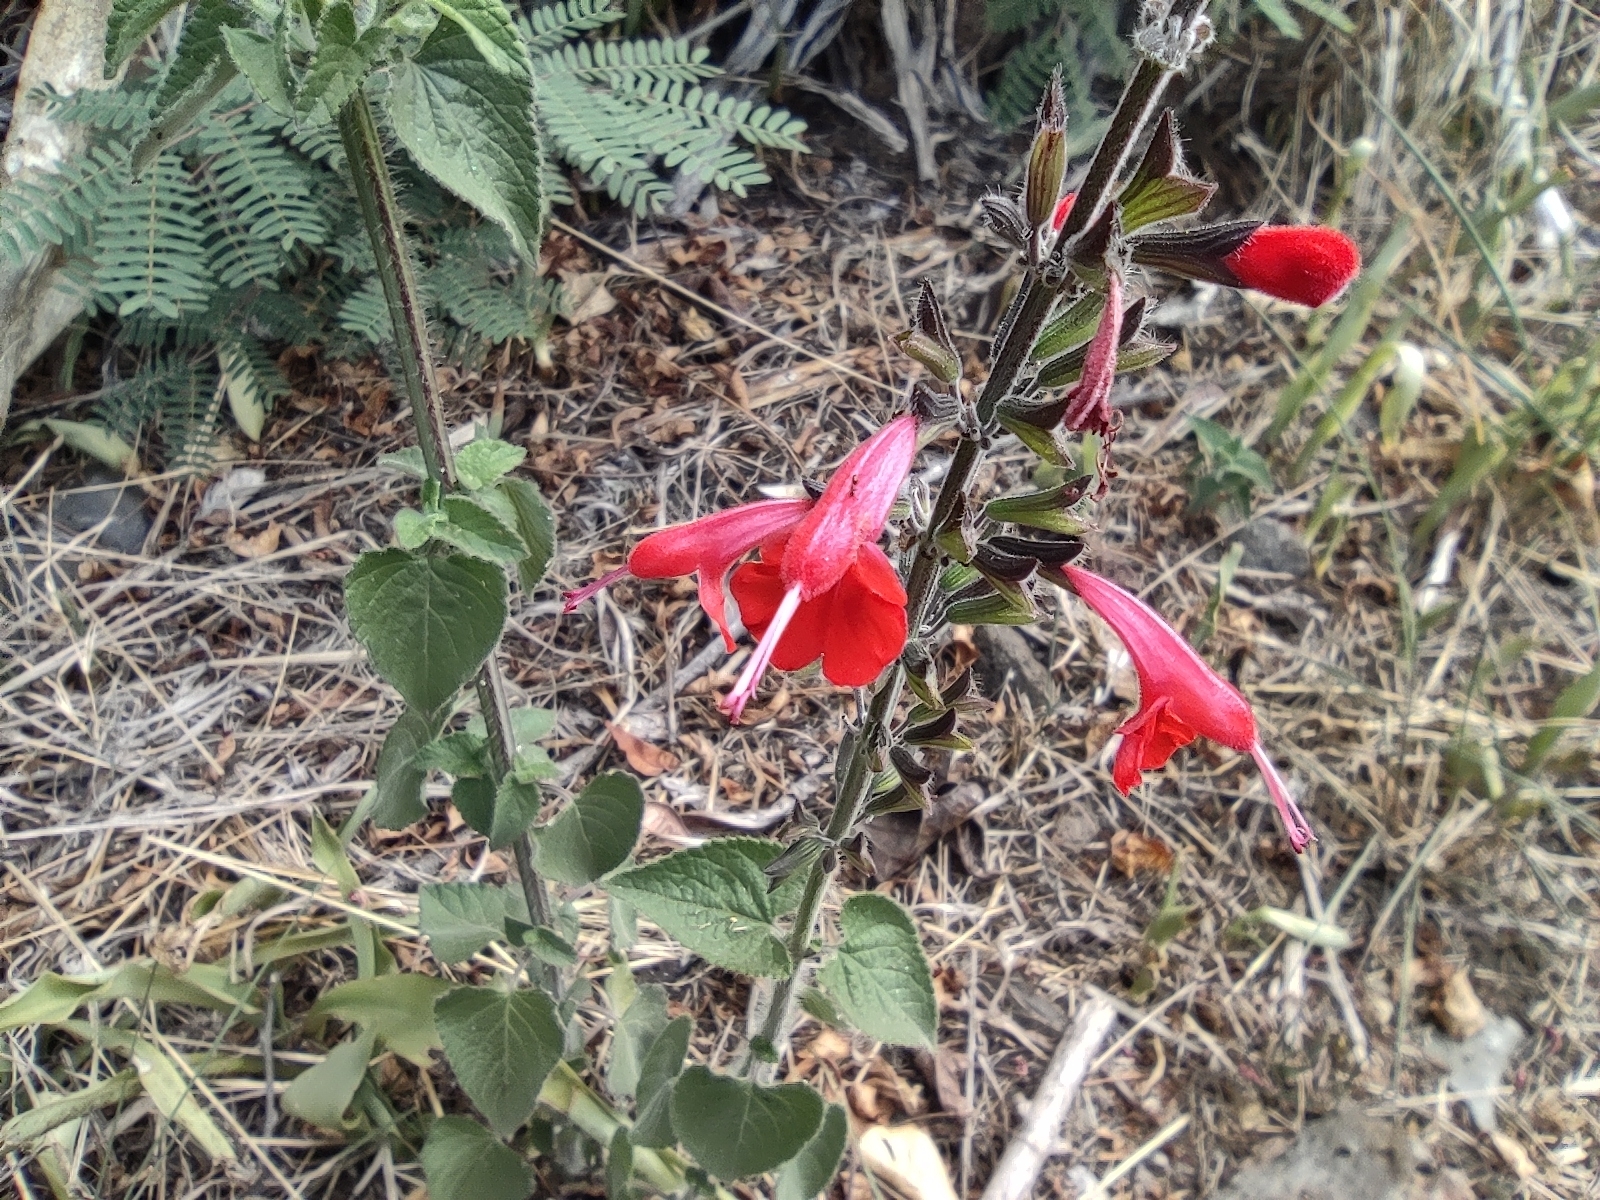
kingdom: Plantae
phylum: Tracheophyta
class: Magnoliopsida
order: Lamiales
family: Lamiaceae
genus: Salvia
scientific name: Salvia coccinea
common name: Blood sage
